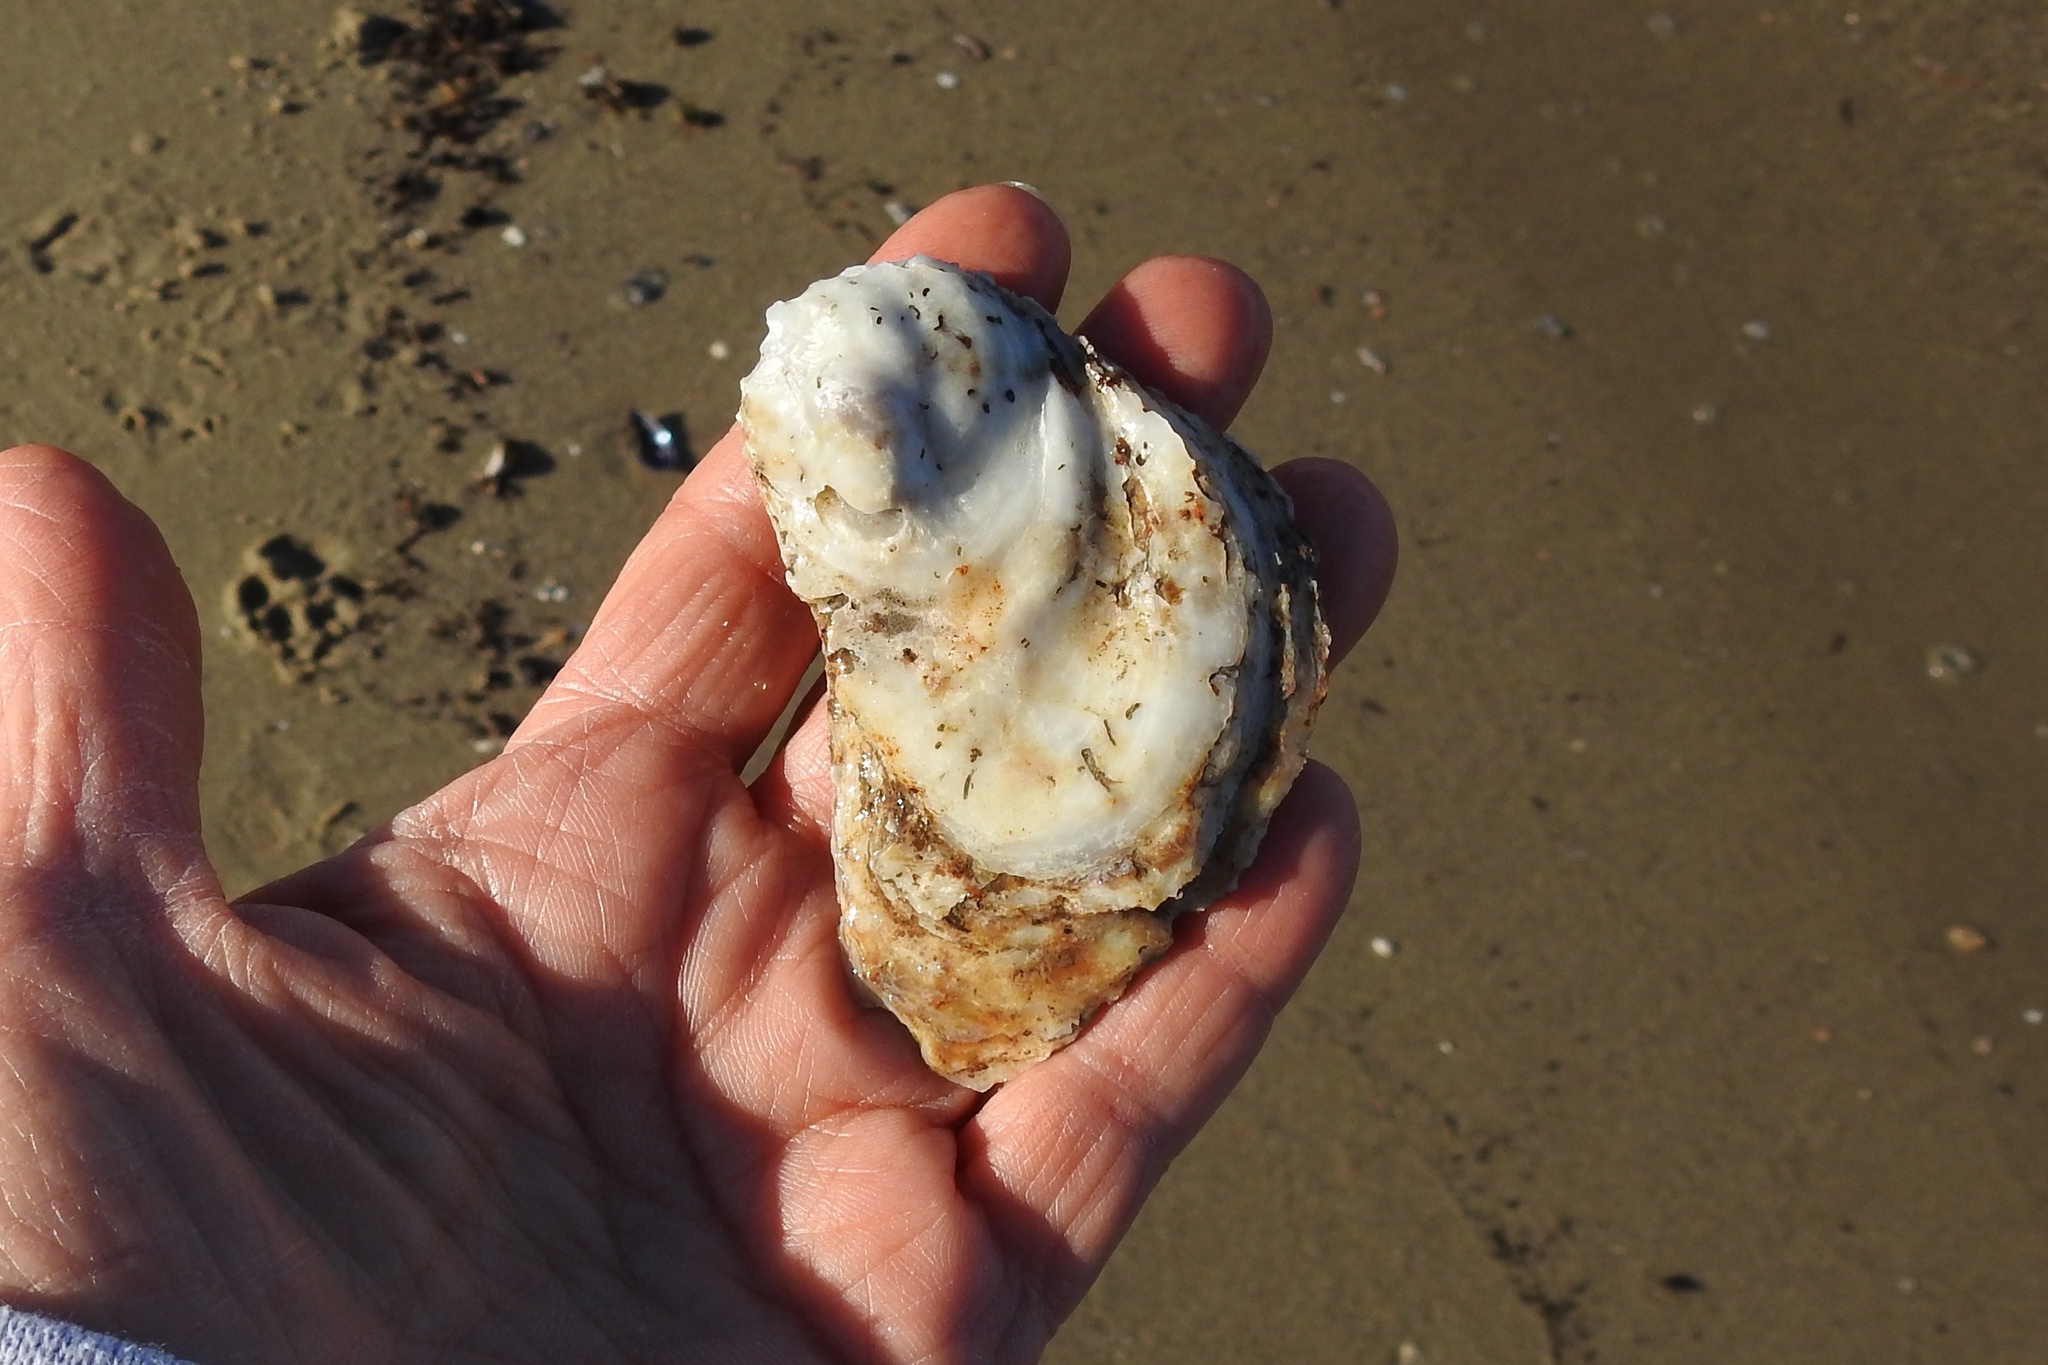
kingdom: Animalia
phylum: Mollusca
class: Bivalvia
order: Ostreida
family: Ostreidae
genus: Crassostrea
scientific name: Crassostrea virginica
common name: American oyster
